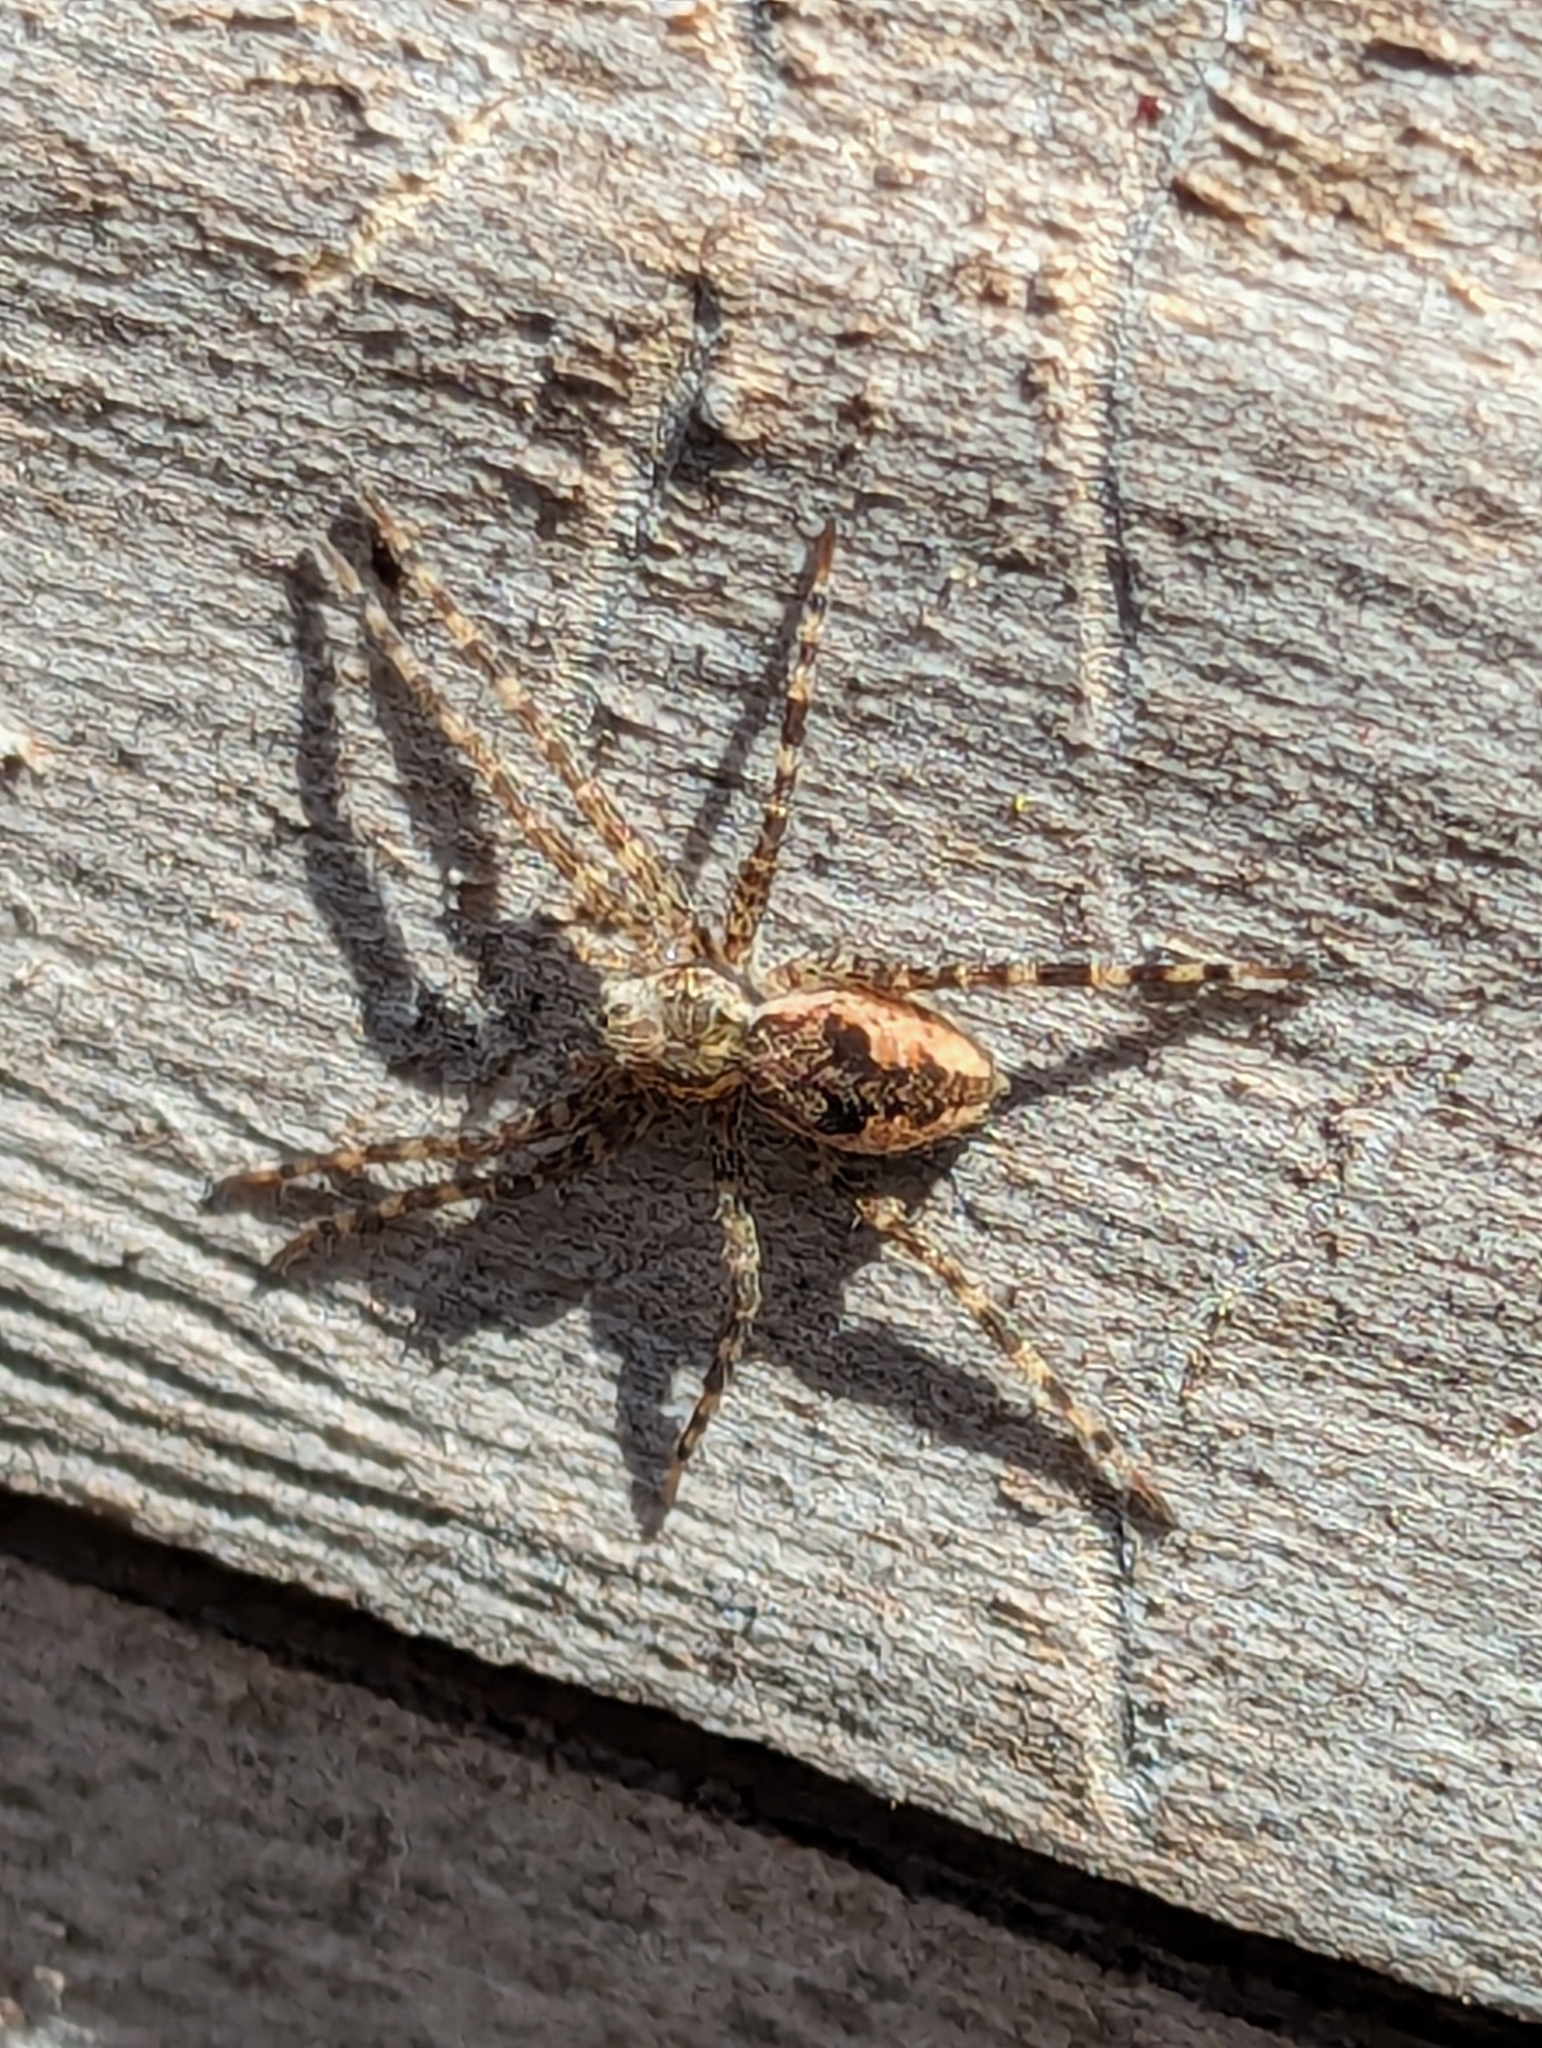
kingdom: Animalia
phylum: Arthropoda
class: Arachnida
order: Araneae
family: Pisauridae
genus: Dolomedes
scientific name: Dolomedes tenebrosus
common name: Dark fishing spider
